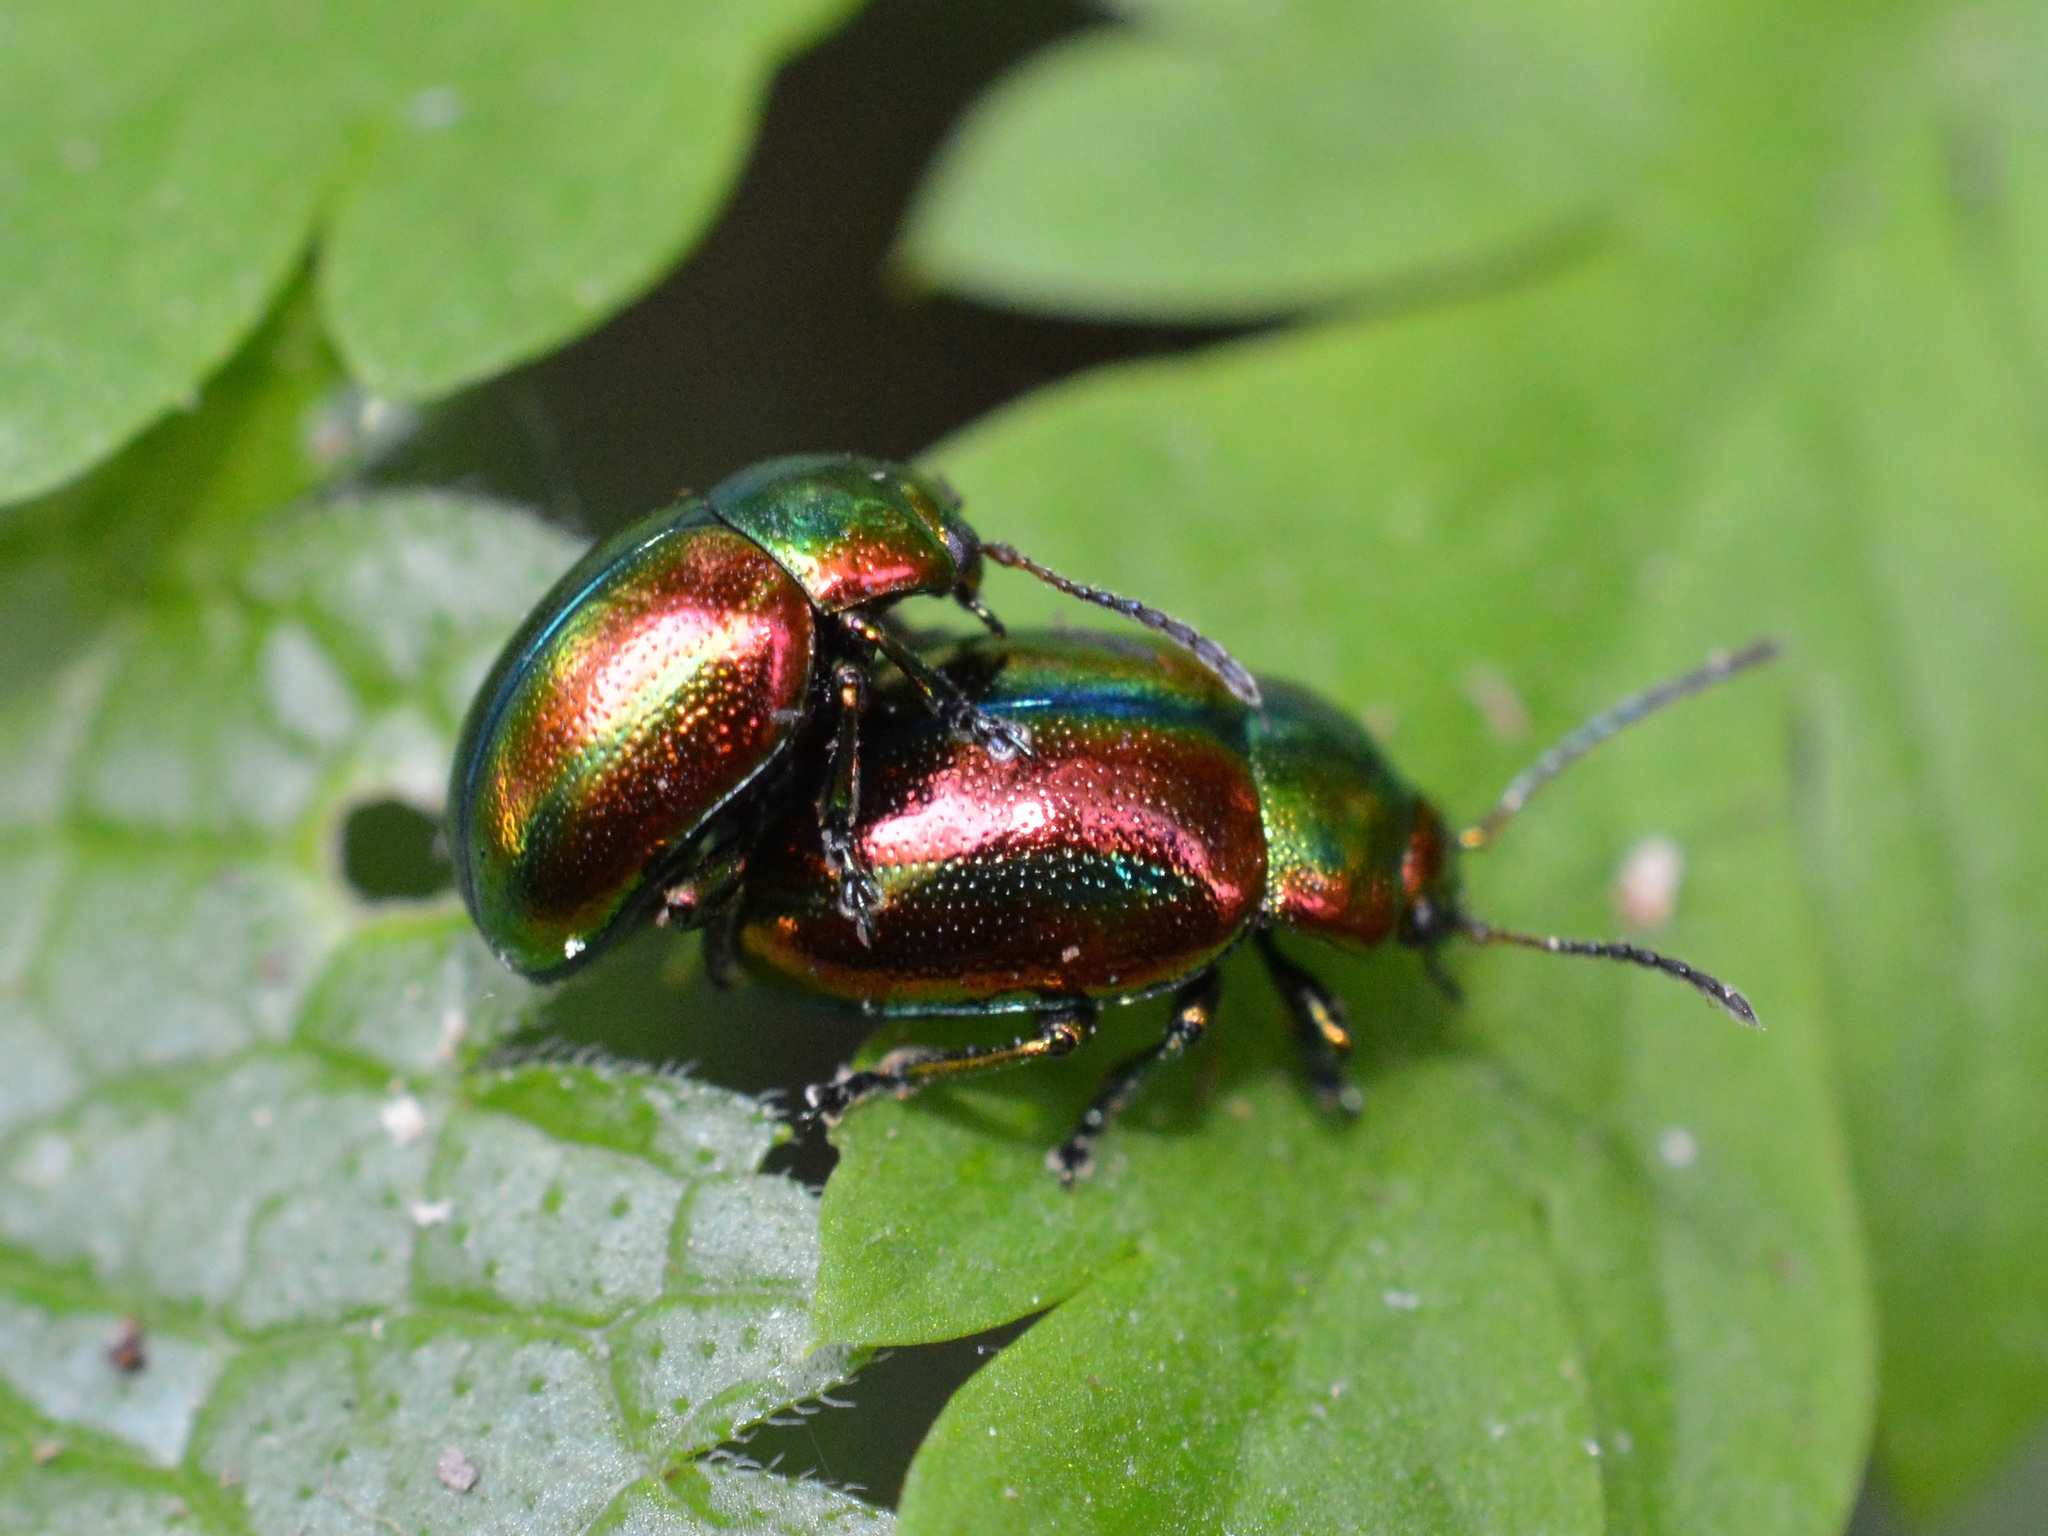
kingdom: Animalia
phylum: Arthropoda
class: Insecta
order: Coleoptera
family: Chrysomelidae
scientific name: Chrysomelidae
